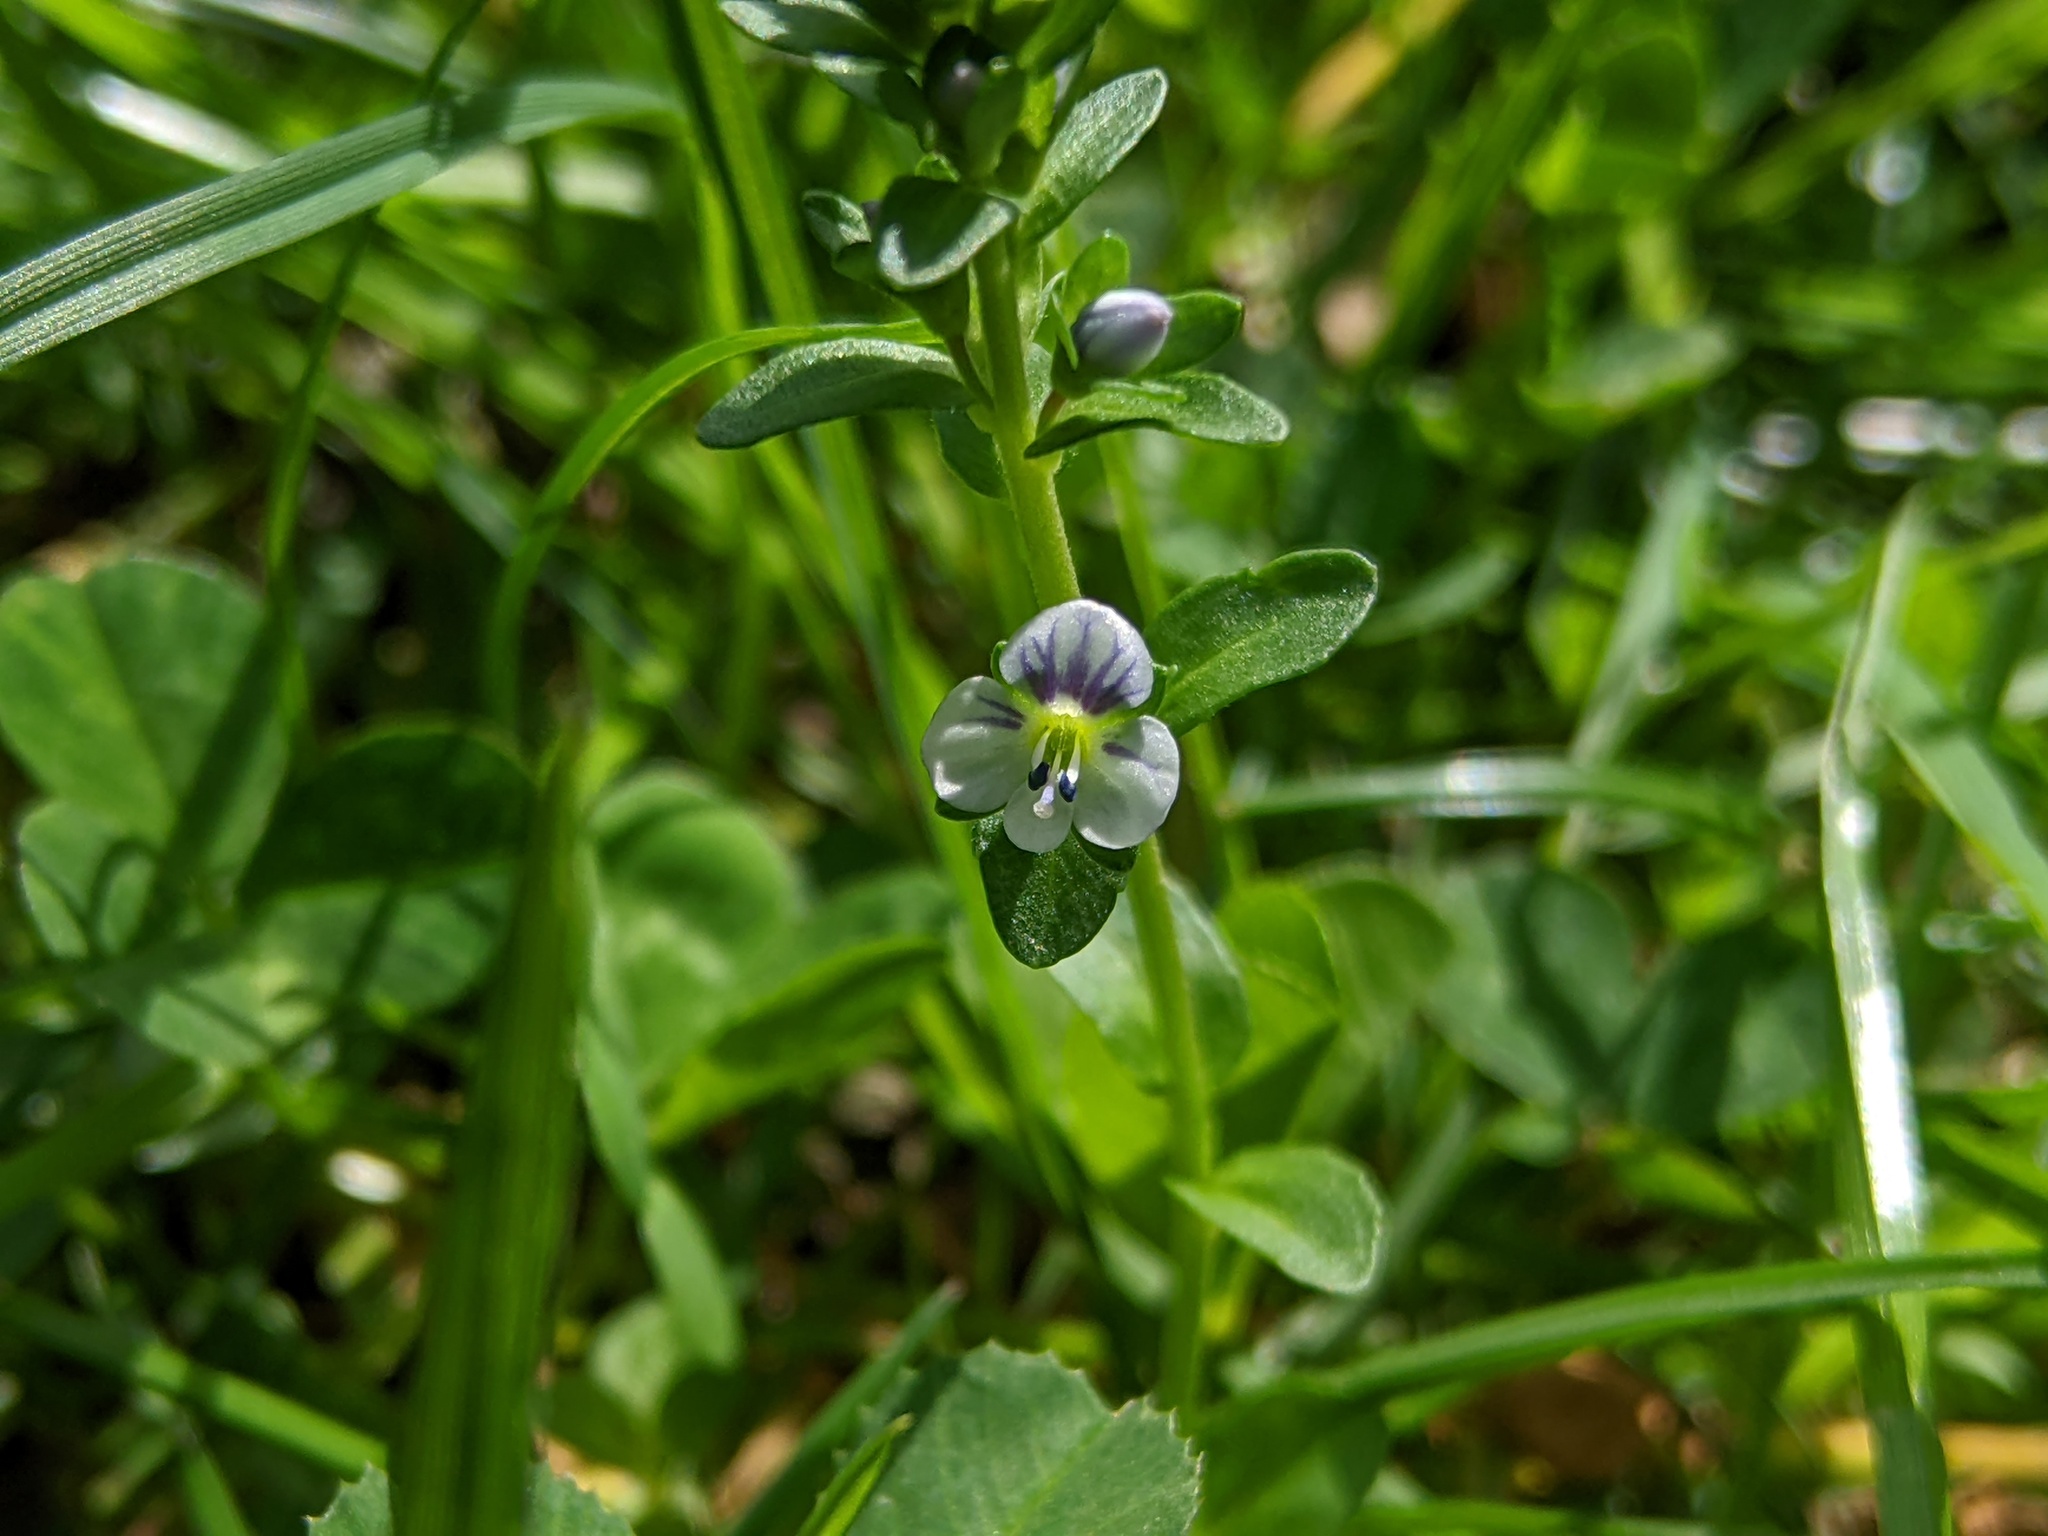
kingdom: Plantae
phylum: Tracheophyta
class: Magnoliopsida
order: Lamiales
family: Plantaginaceae
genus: Veronica
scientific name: Veronica serpyllifolia
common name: Thyme-leaved speedwell
